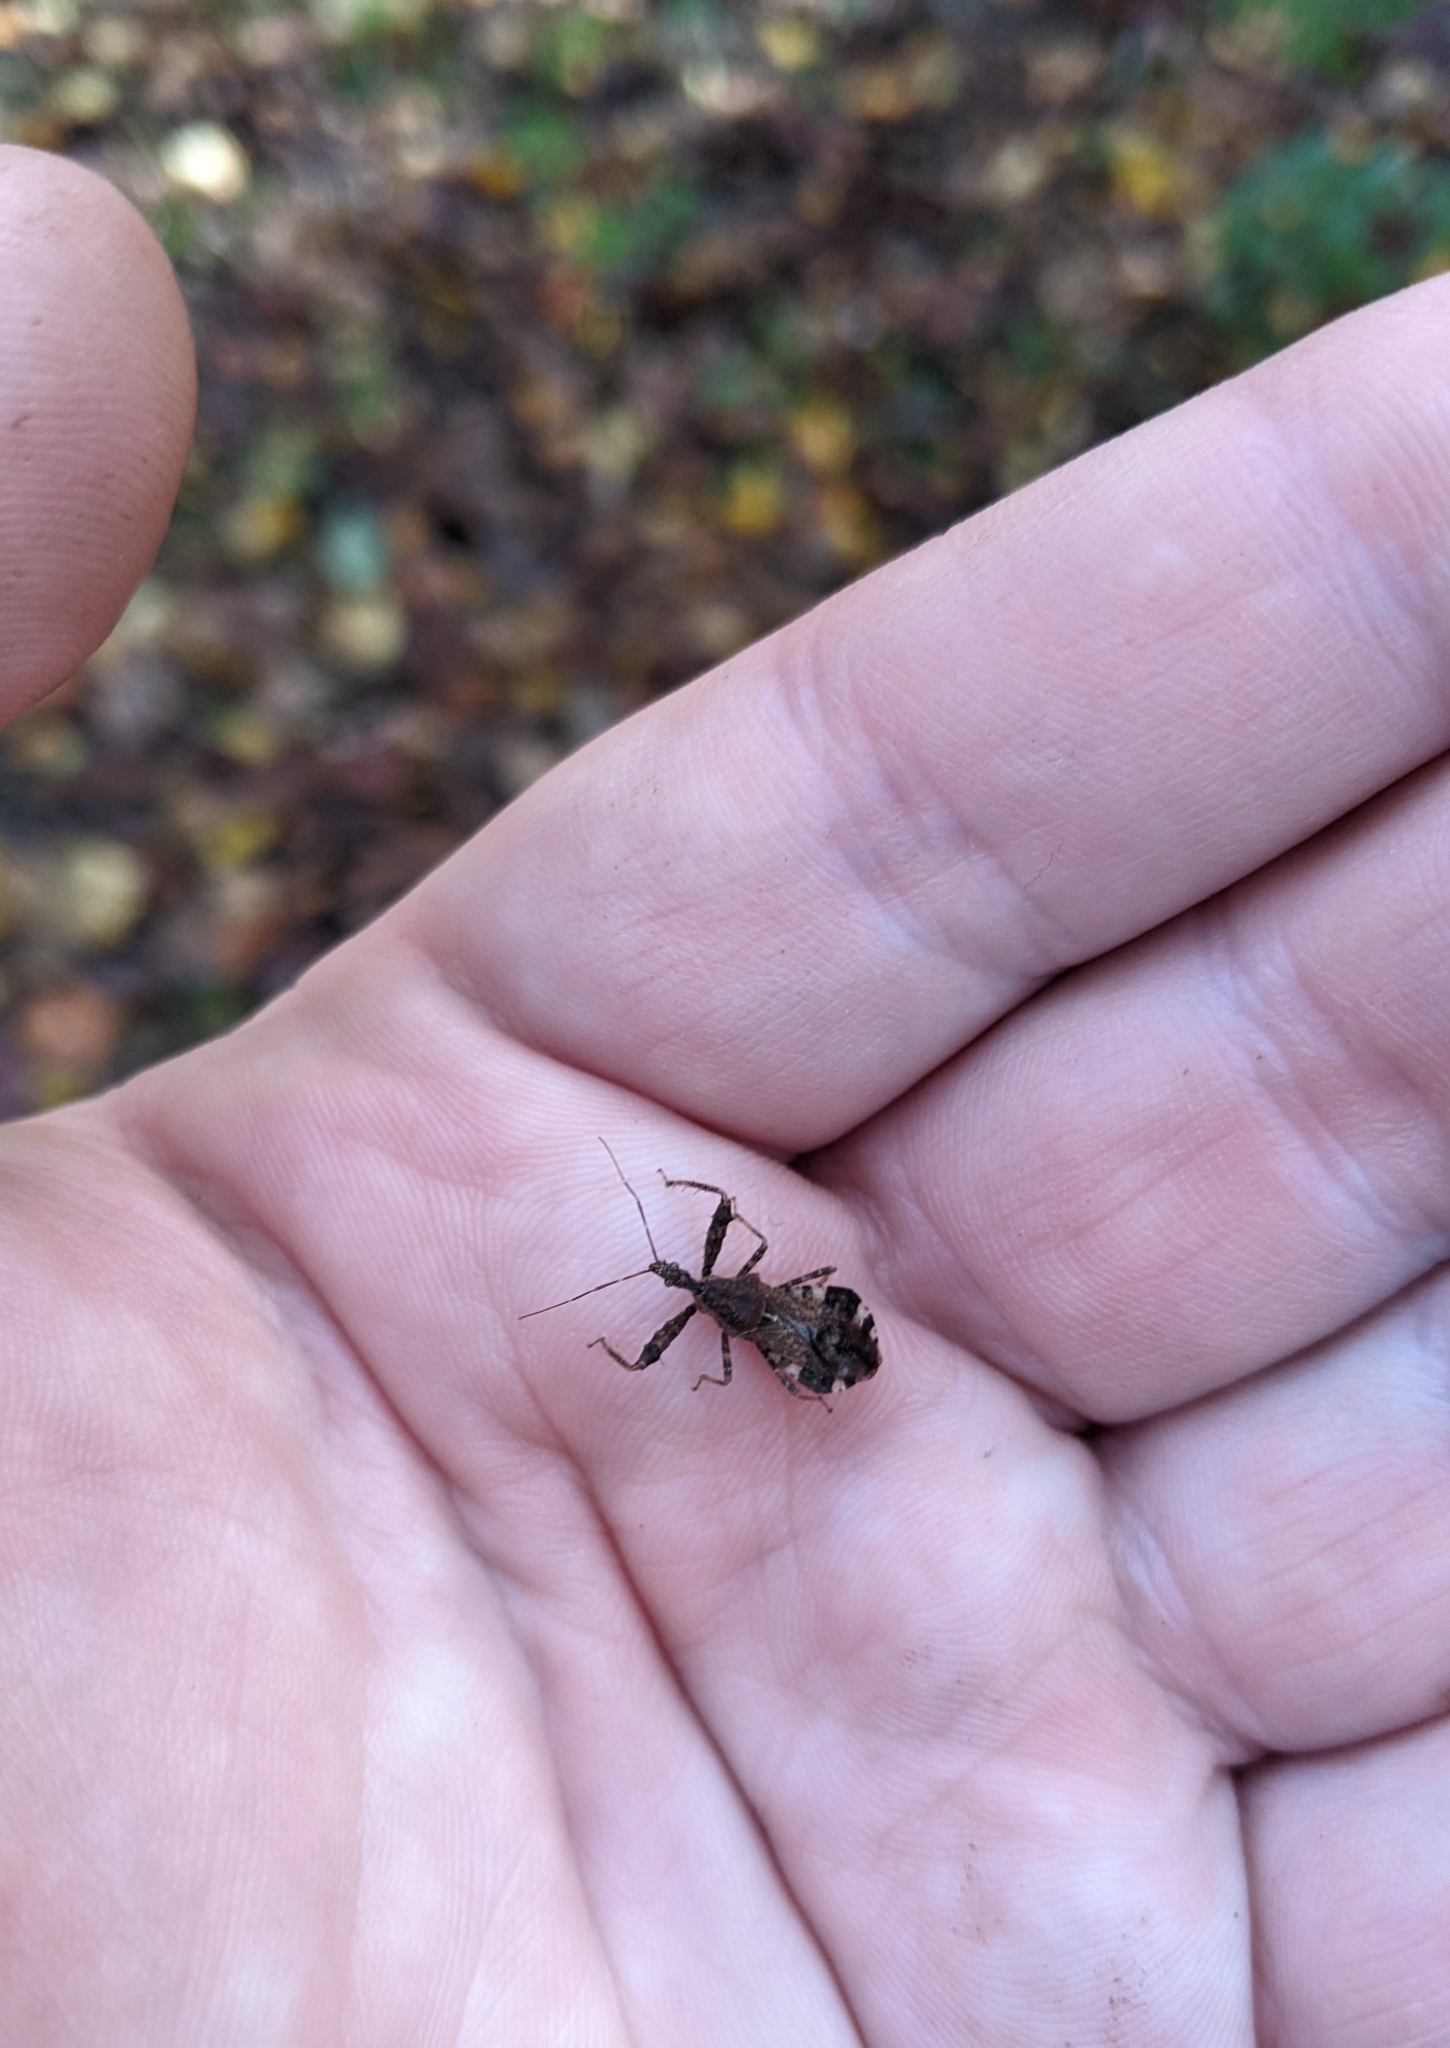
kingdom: Animalia
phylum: Arthropoda
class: Insecta
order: Hemiptera
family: Reduviidae
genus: Sinea
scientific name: Sinea spinipes
